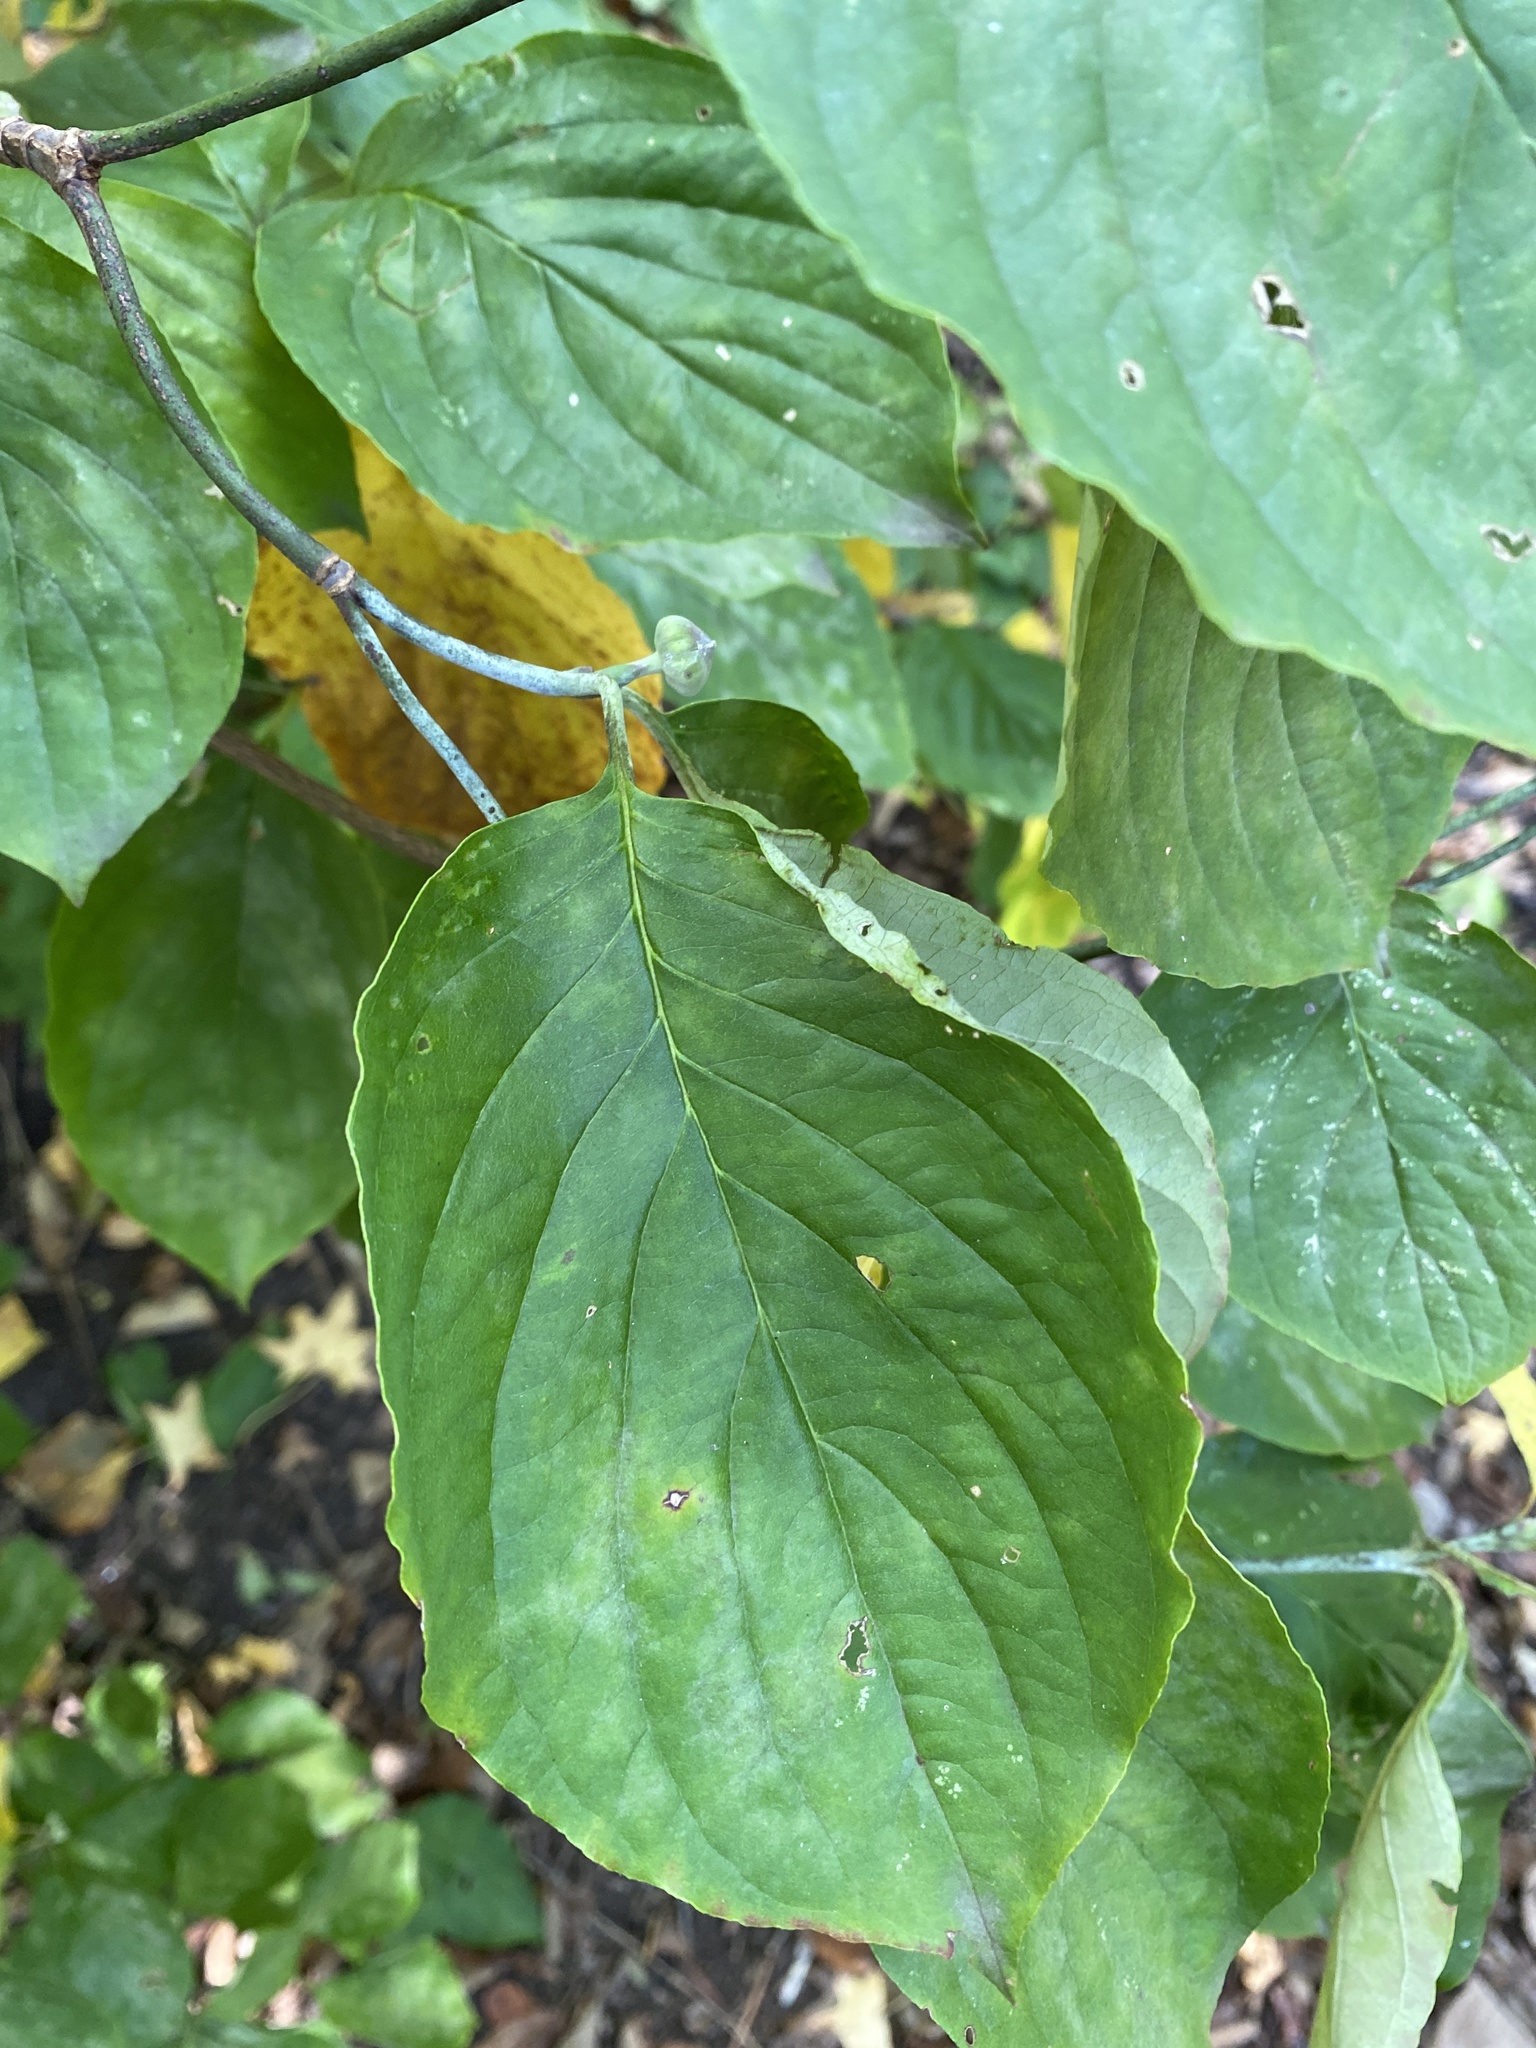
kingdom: Plantae
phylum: Tracheophyta
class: Magnoliopsida
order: Cornales
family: Cornaceae
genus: Cornus
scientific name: Cornus florida
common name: Flowering dogwood
